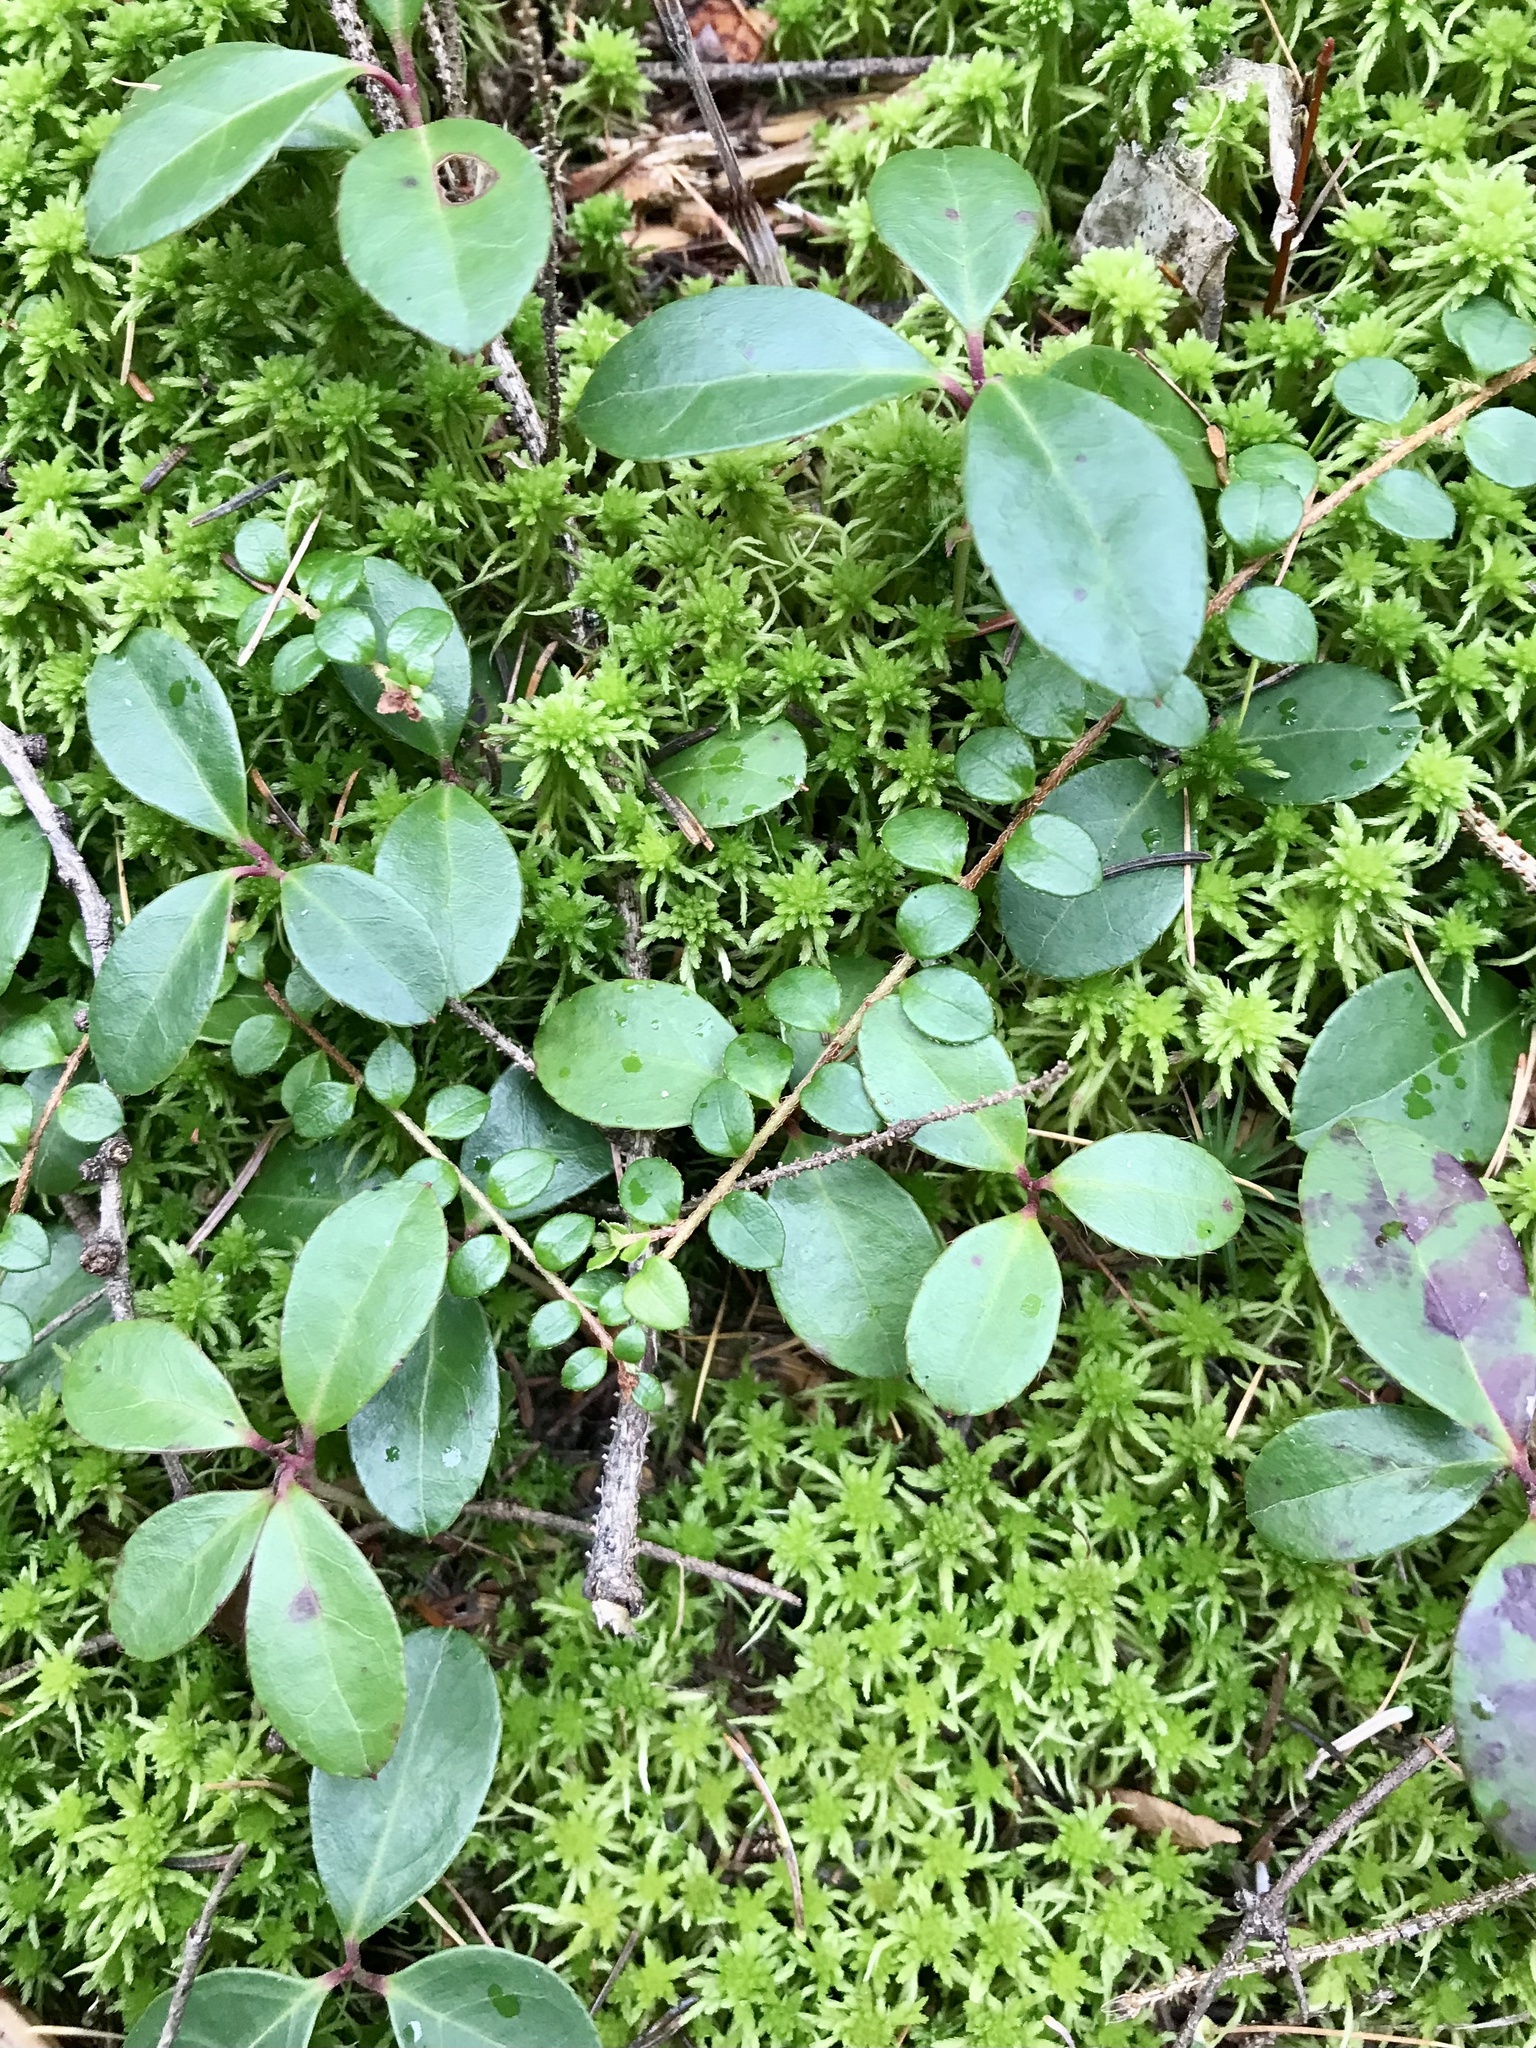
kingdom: Plantae
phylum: Tracheophyta
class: Magnoliopsida
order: Ericales
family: Ericaceae
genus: Gaultheria
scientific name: Gaultheria hispidula
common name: Cancer wintergreen
